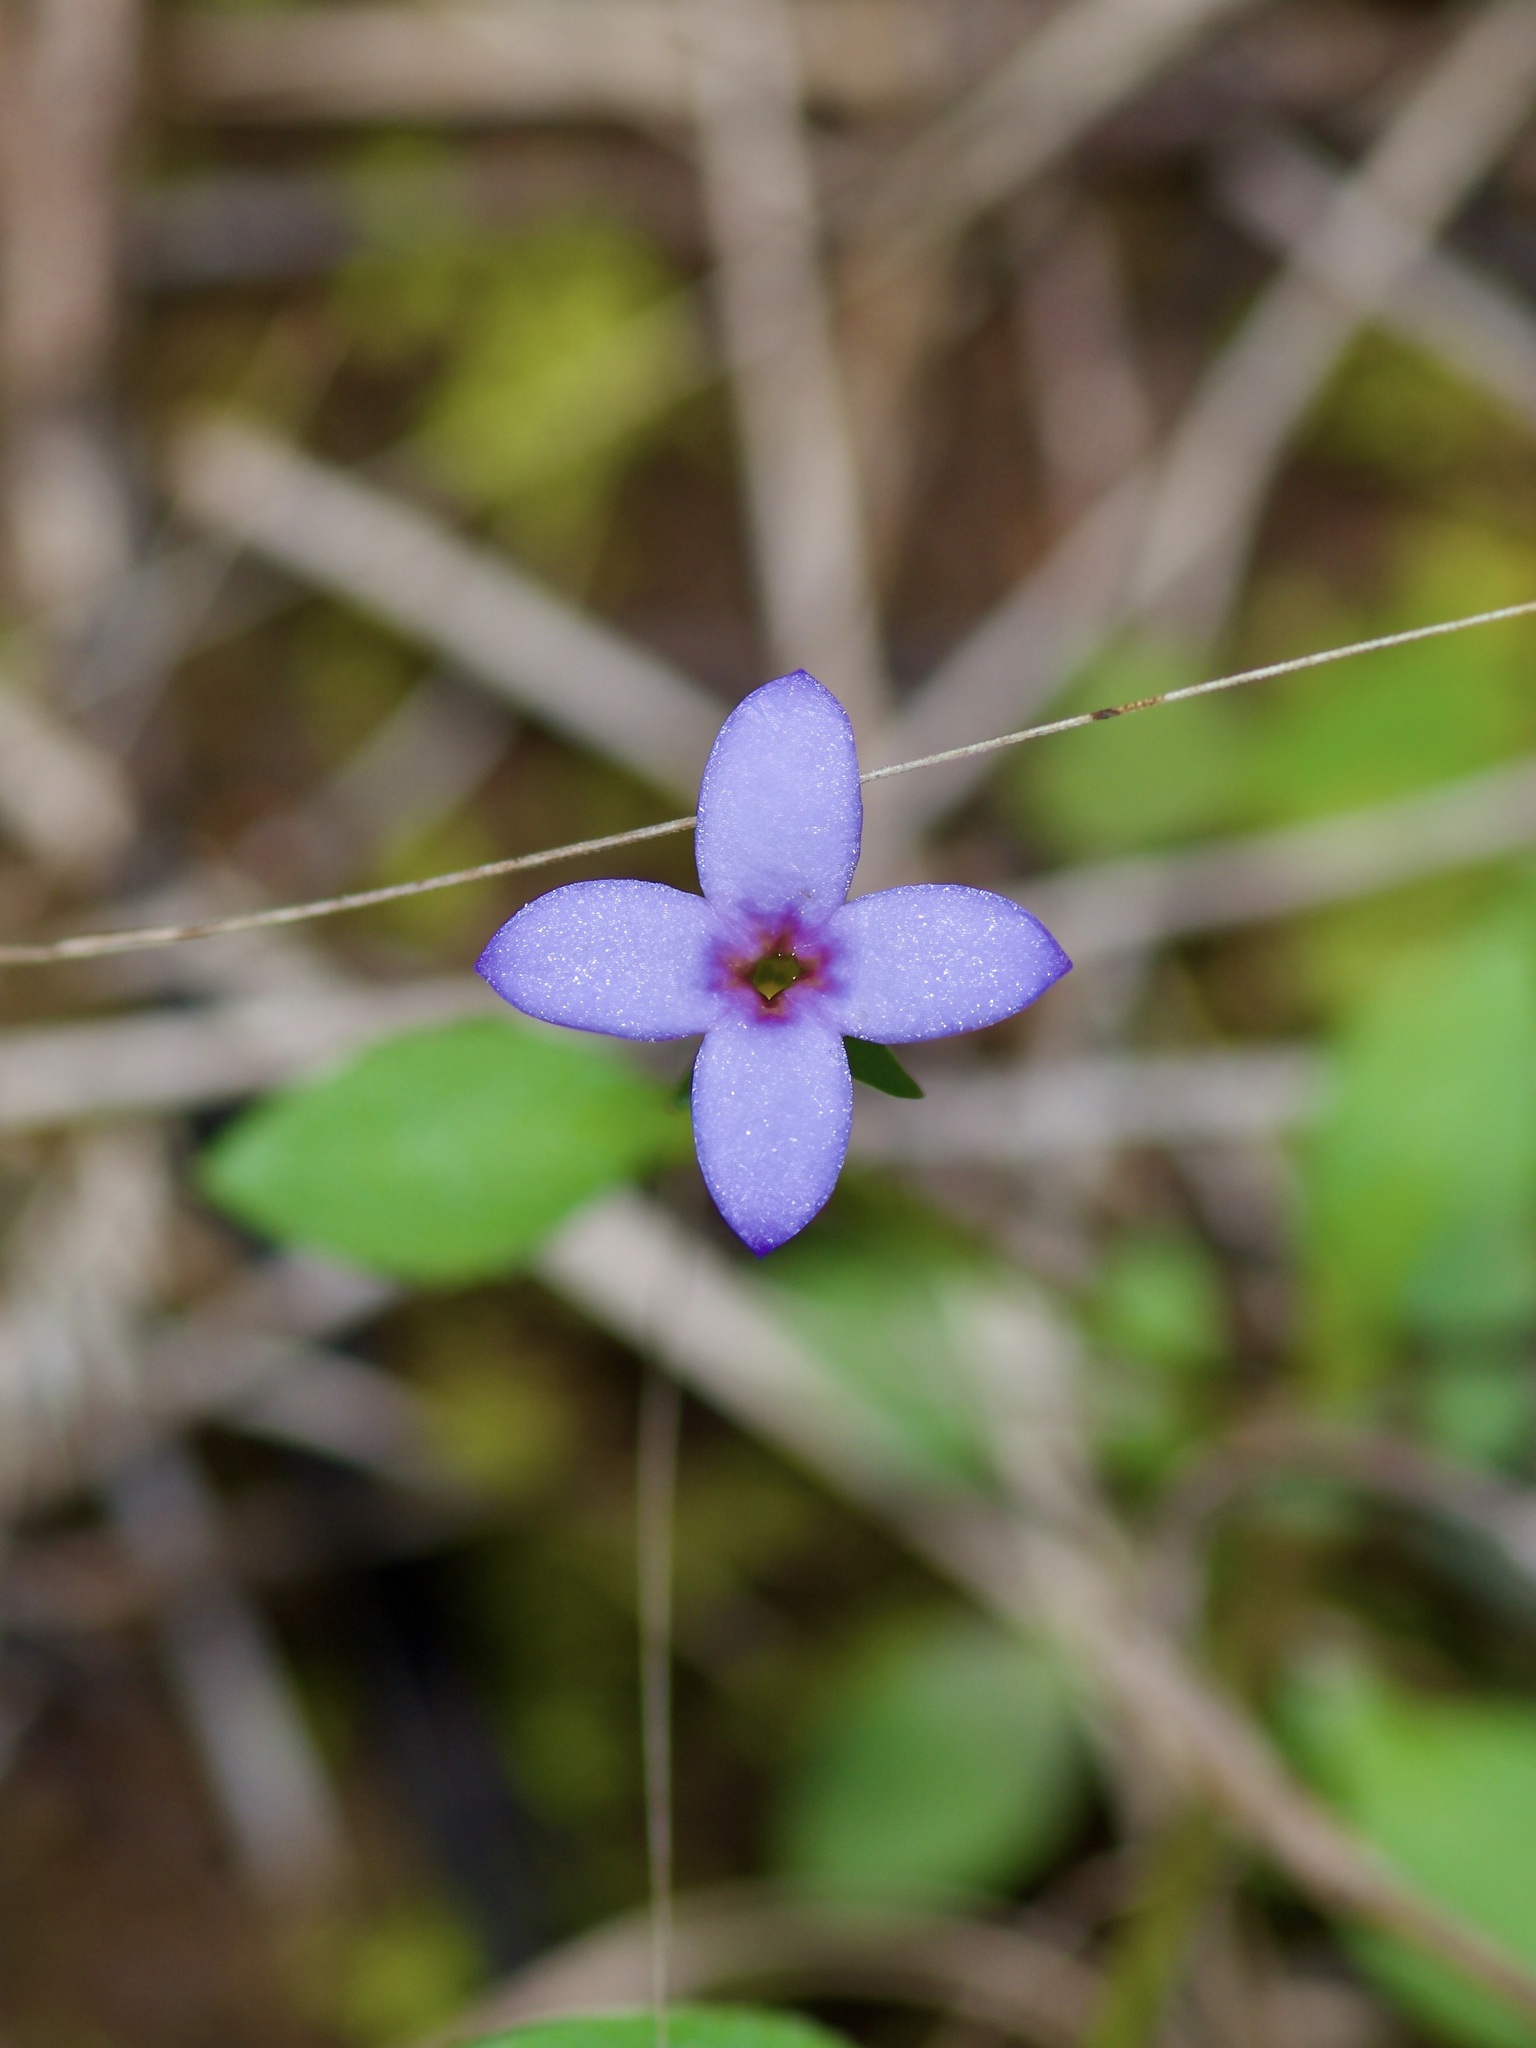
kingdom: Plantae
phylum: Tracheophyta
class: Magnoliopsida
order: Gentianales
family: Rubiaceae
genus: Houstonia
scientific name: Houstonia pusilla
